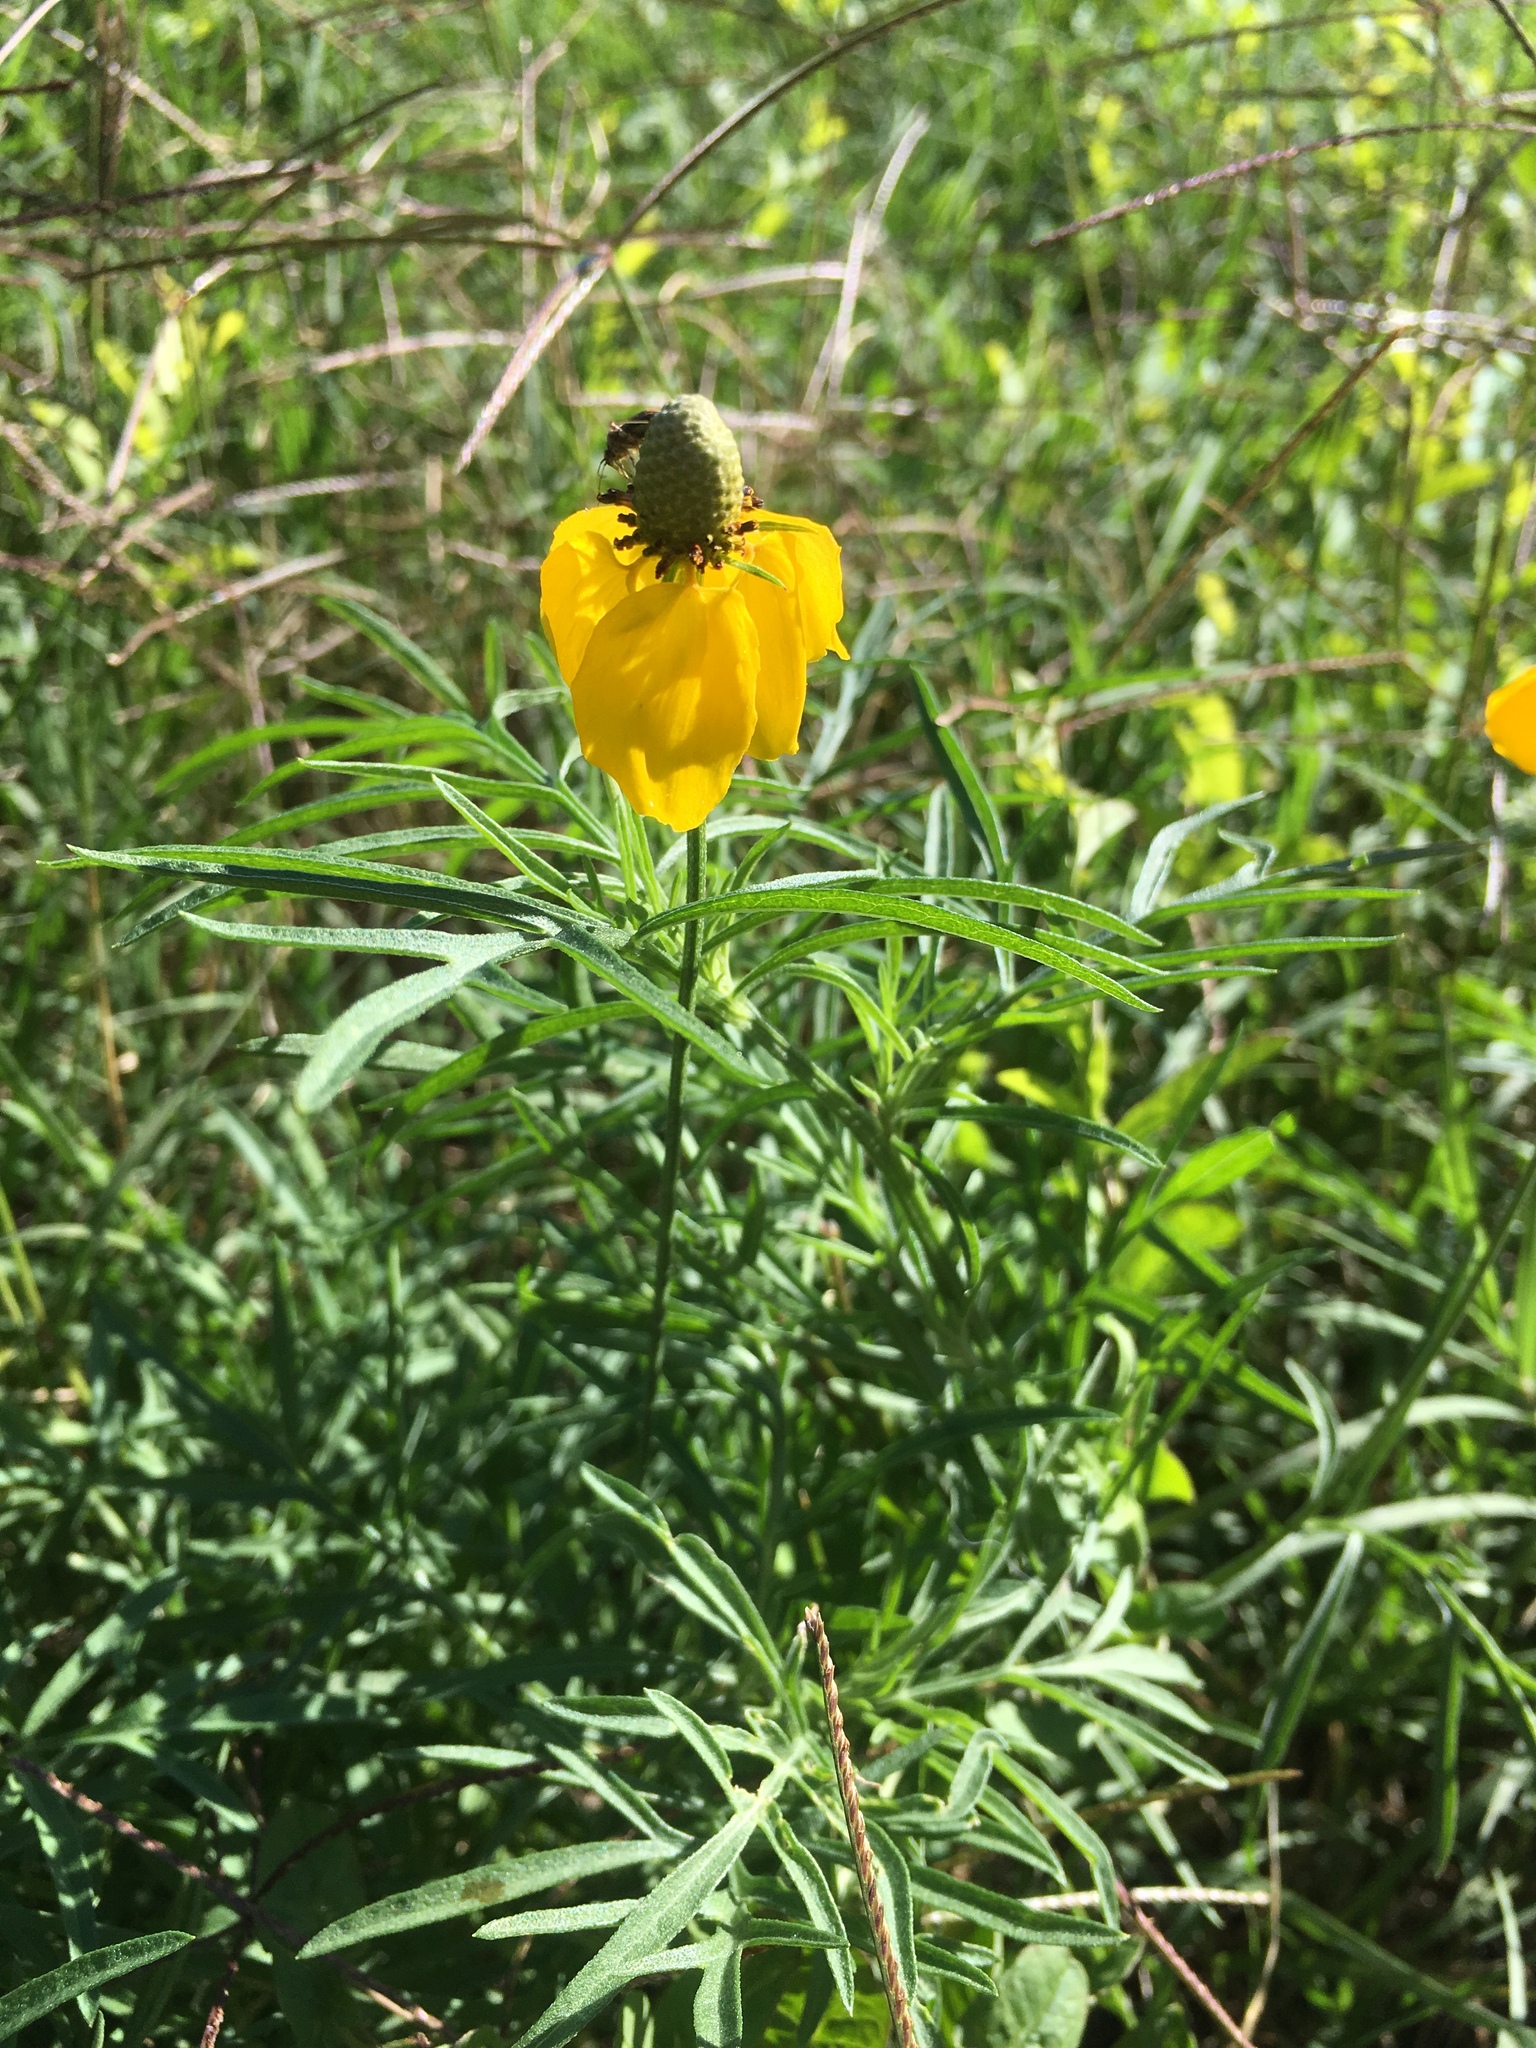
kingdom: Plantae
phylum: Tracheophyta
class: Magnoliopsida
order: Asterales
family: Asteraceae
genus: Ratibida
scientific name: Ratibida columnifera
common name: Prairie coneflower
